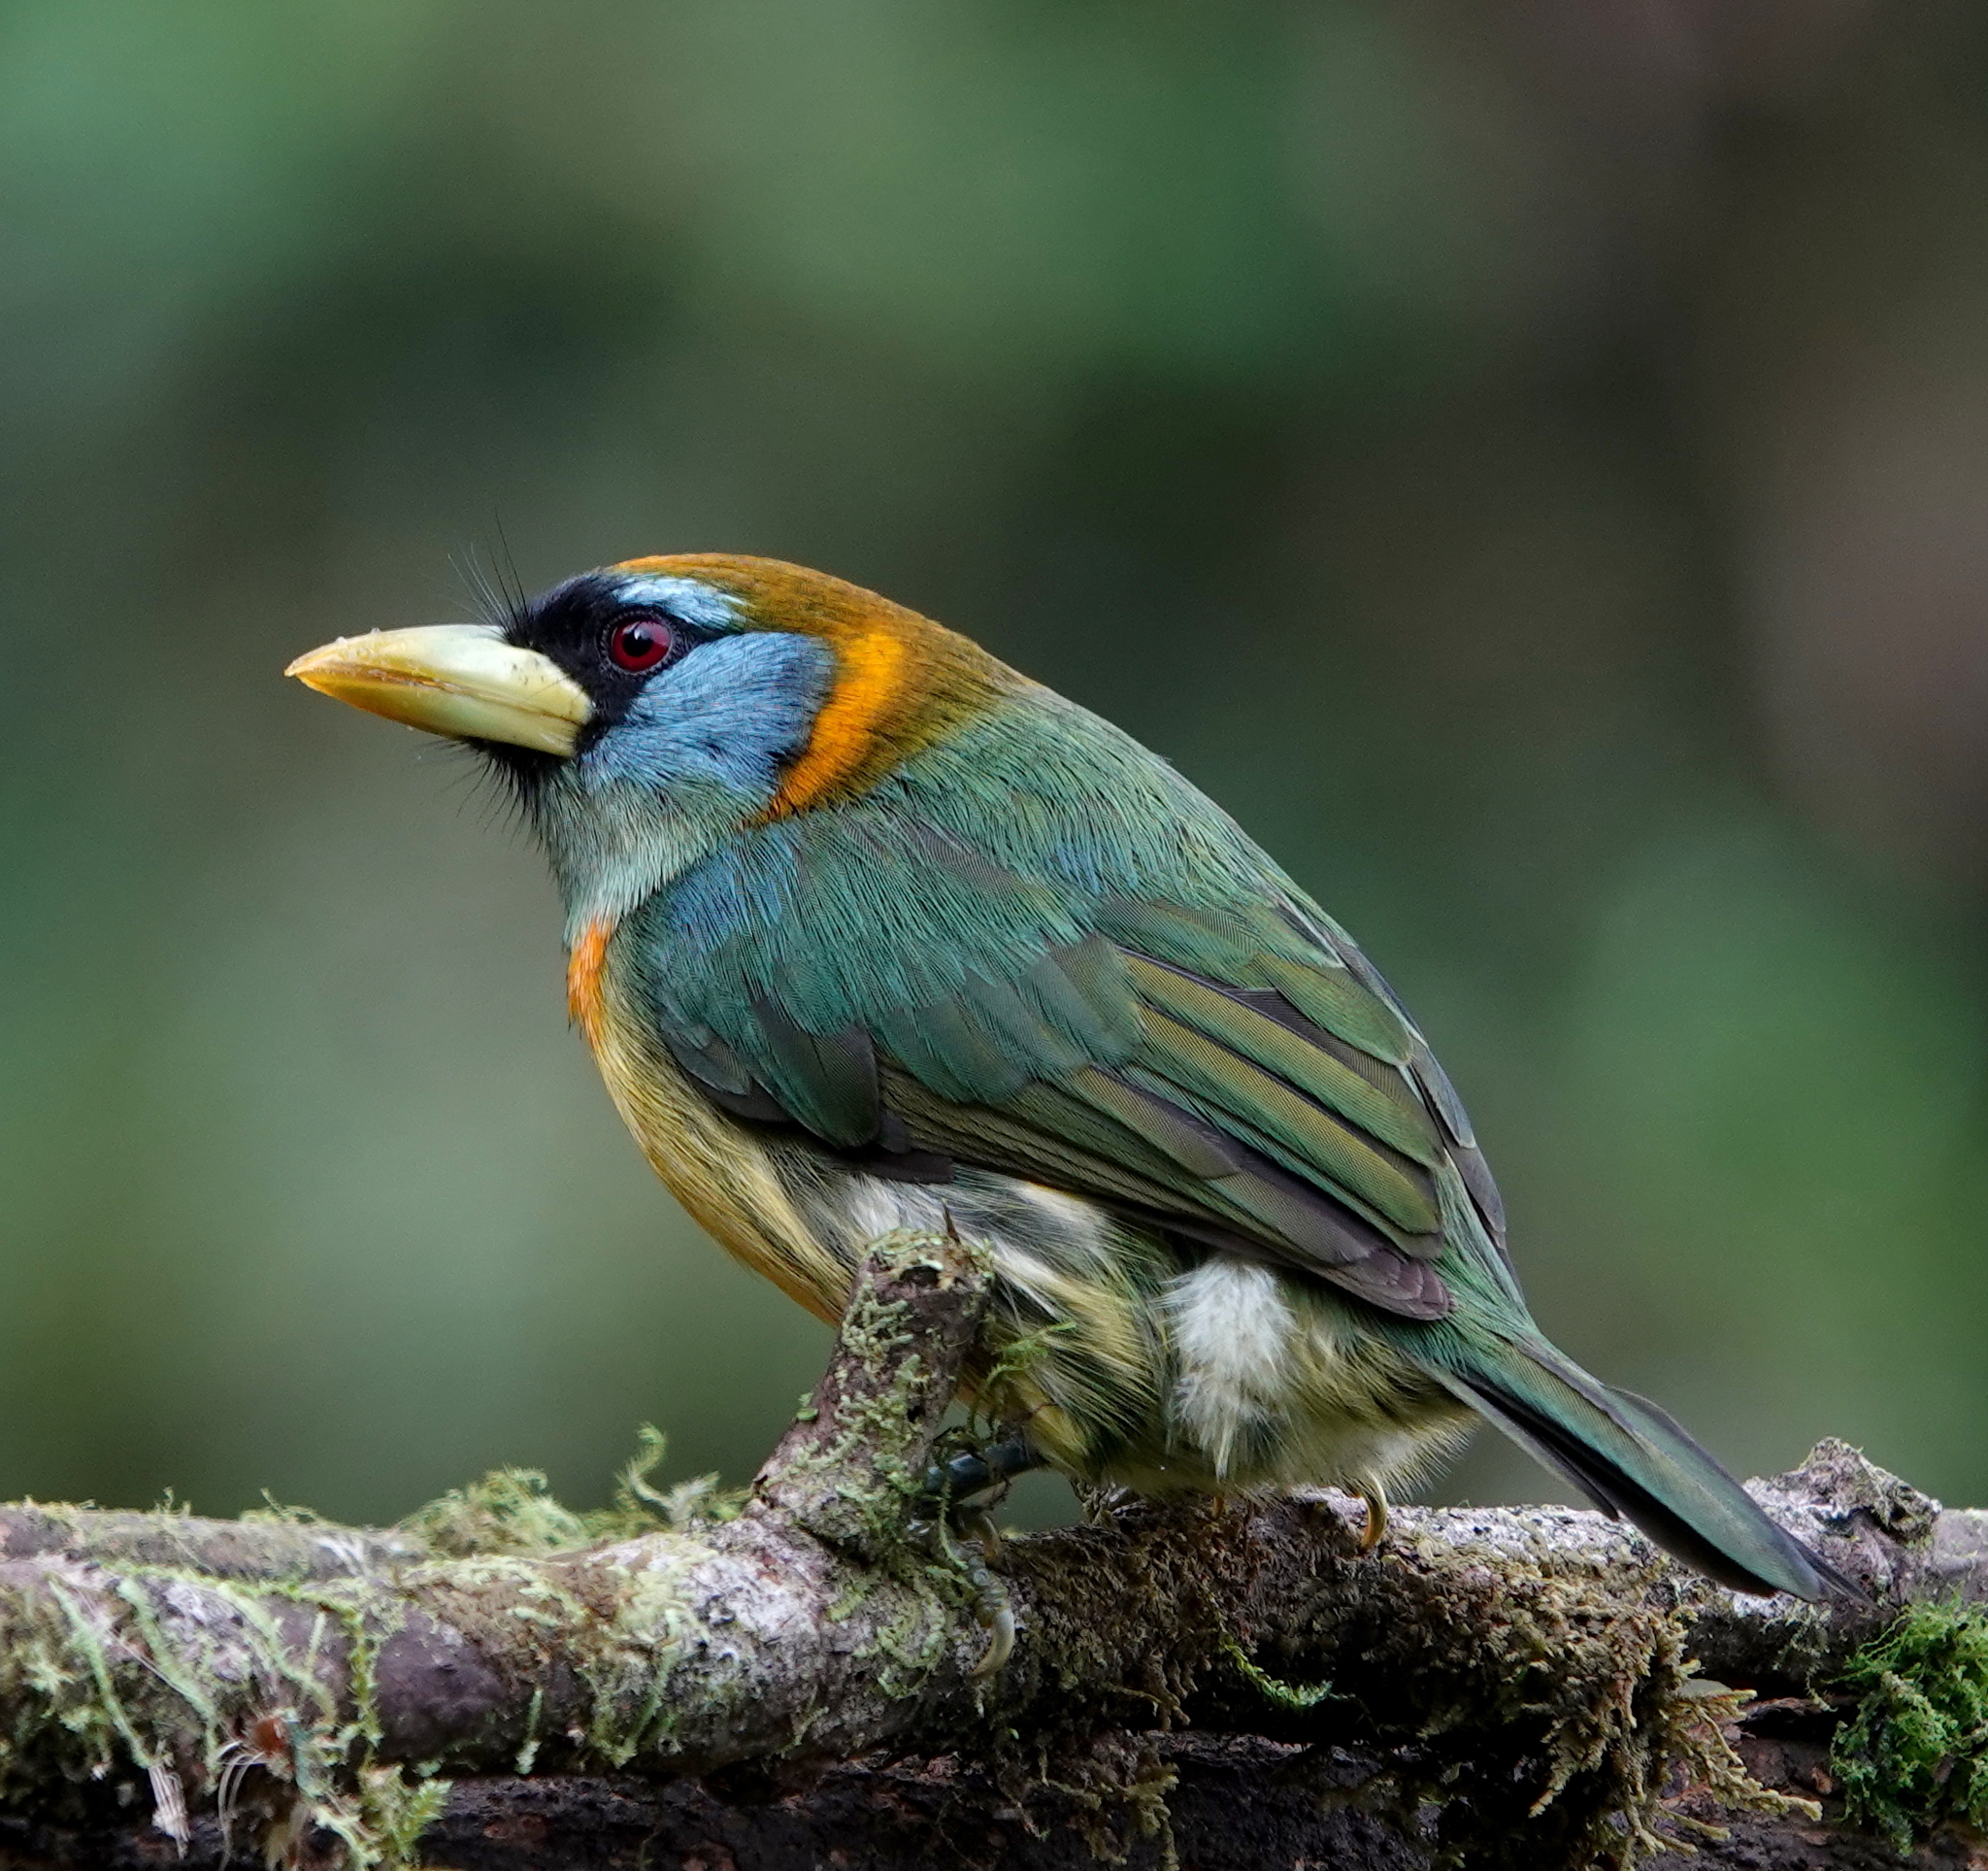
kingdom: Animalia
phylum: Chordata
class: Aves
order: Piciformes
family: Capitonidae
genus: Eubucco
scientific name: Eubucco bourcierii
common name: Red-headed barbet
